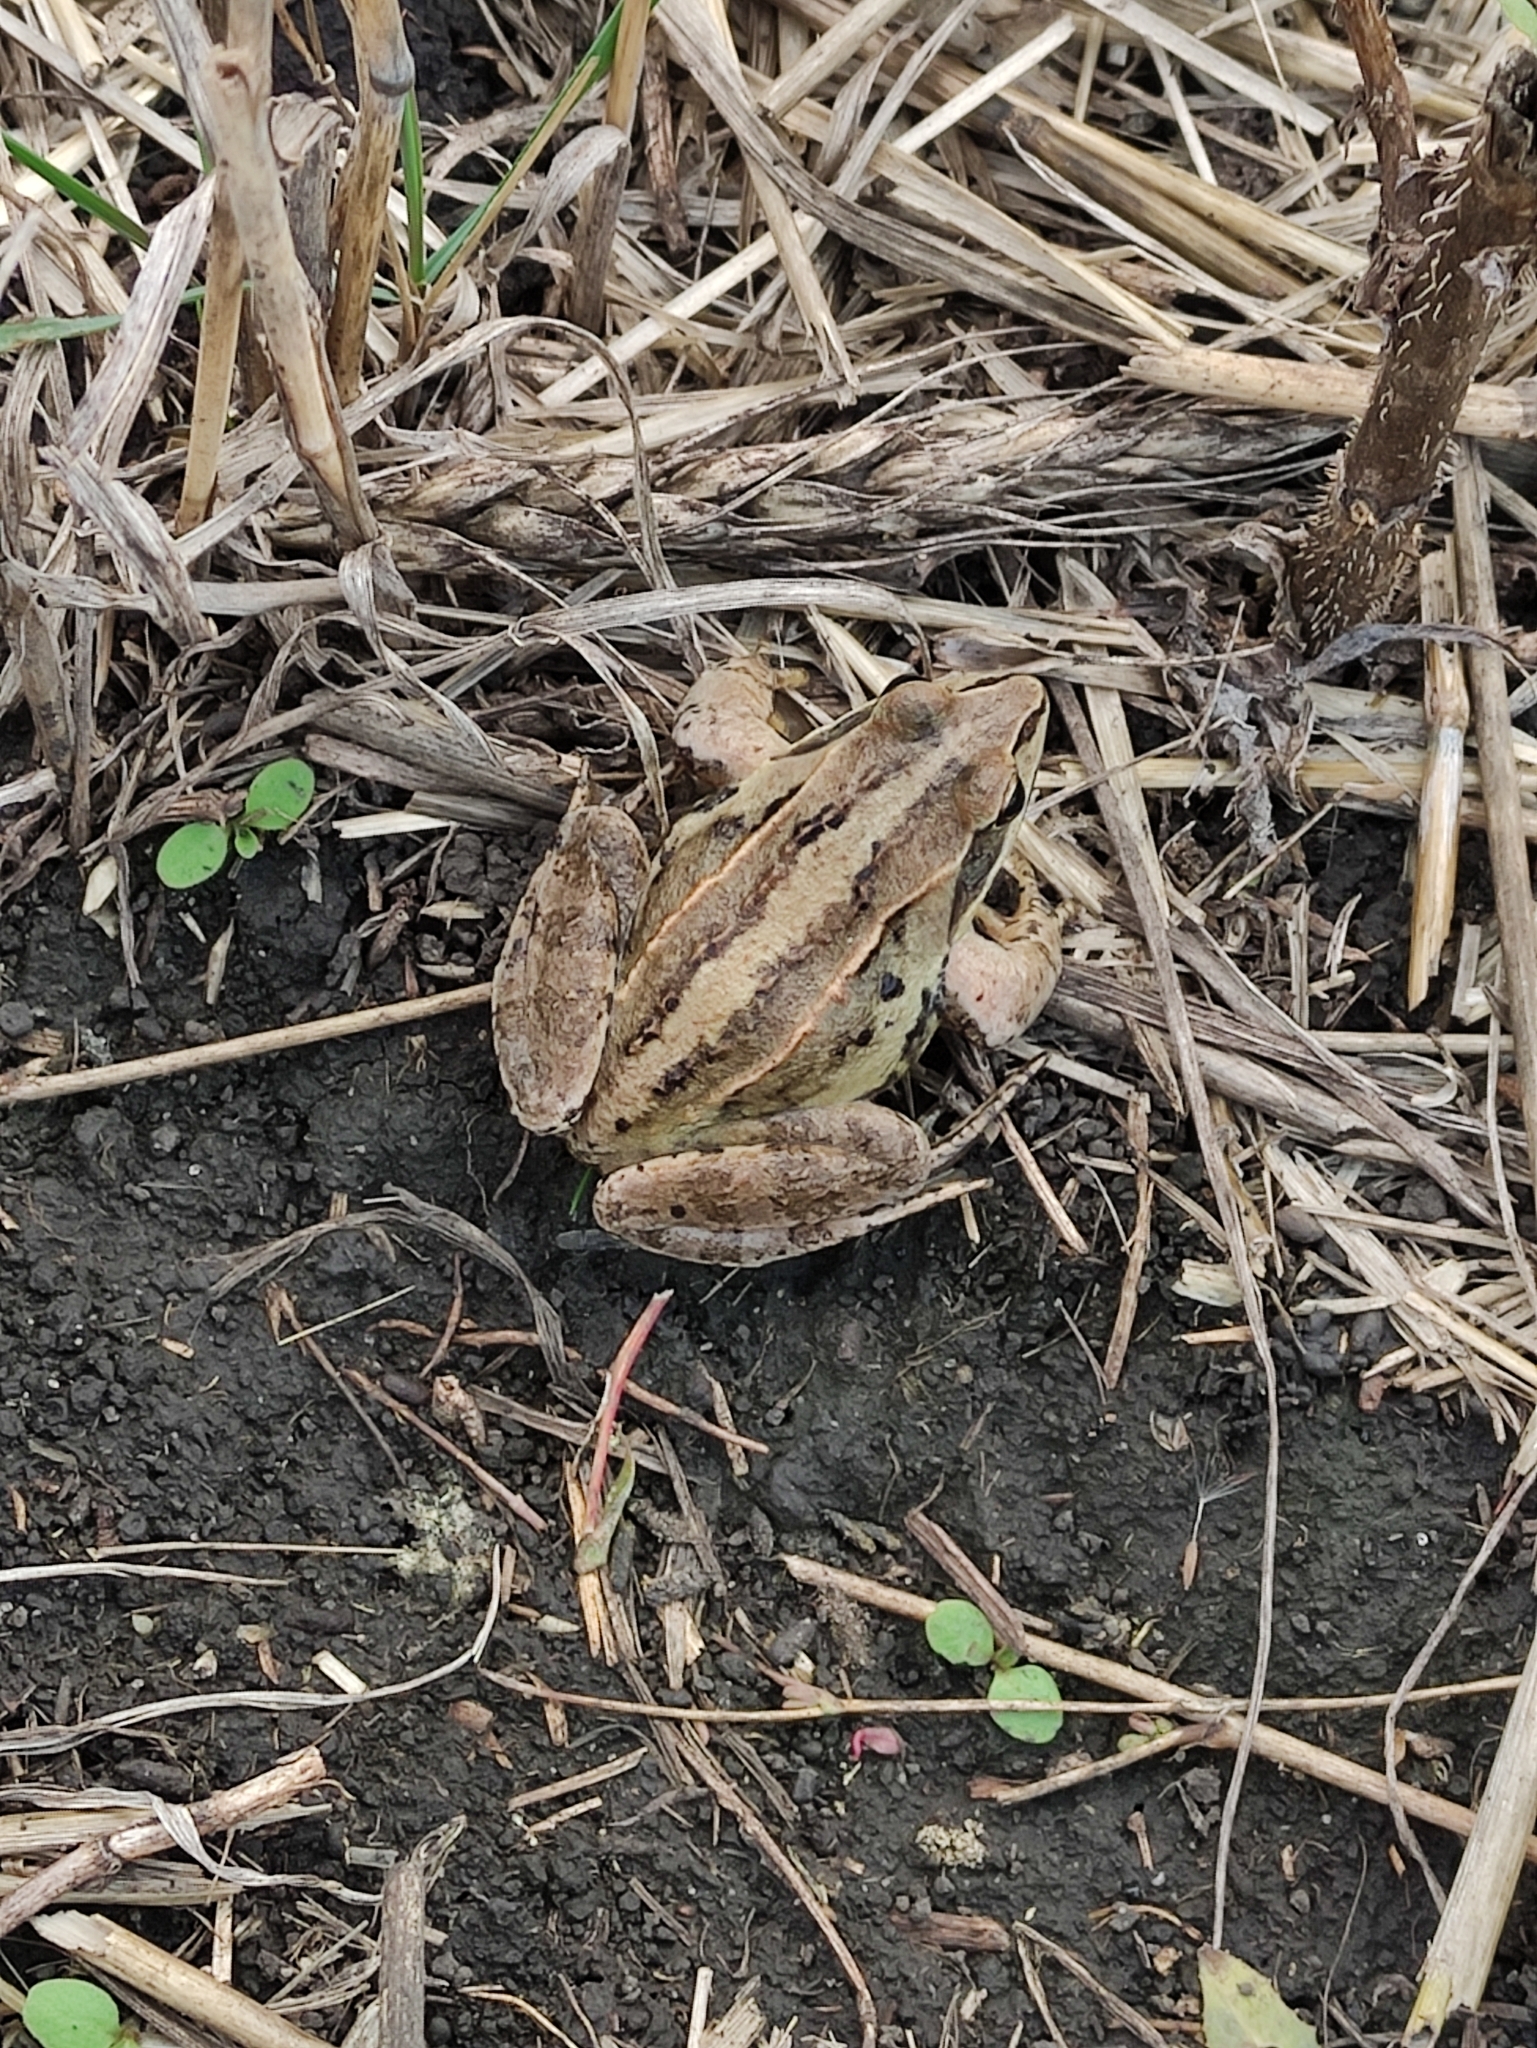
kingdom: Animalia
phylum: Chordata
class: Amphibia
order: Anura
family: Ranidae
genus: Rana
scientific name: Rana arvalis
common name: Moor frog
